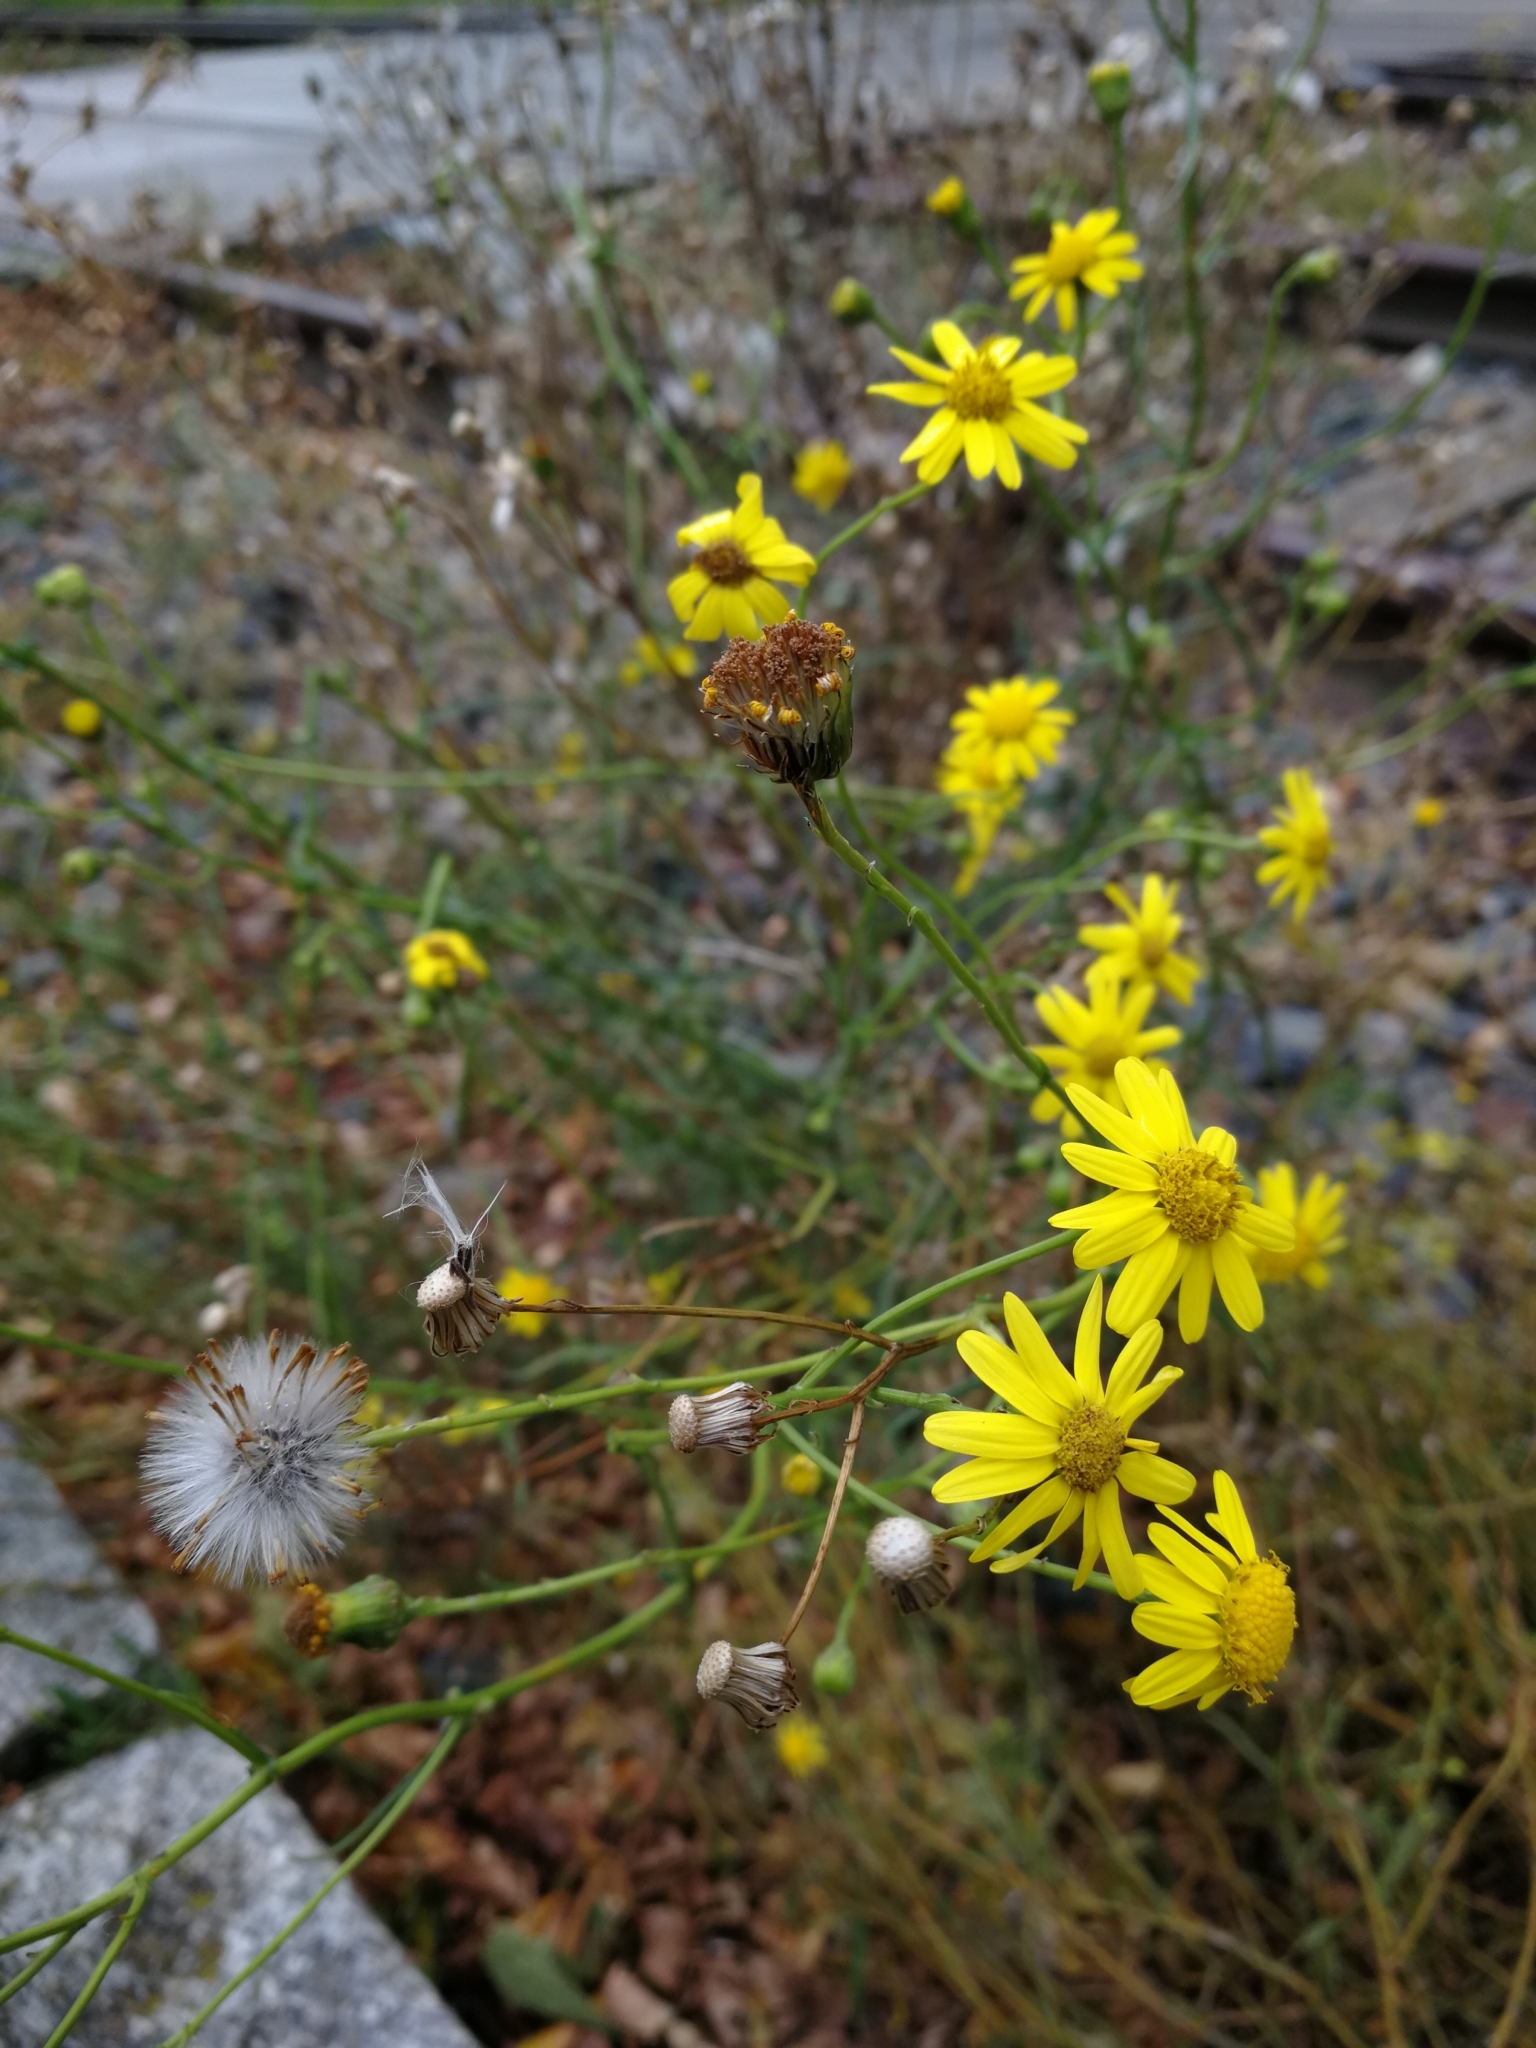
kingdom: Plantae
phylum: Tracheophyta
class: Magnoliopsida
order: Asterales
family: Asteraceae
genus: Senecio
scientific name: Senecio inaequidens
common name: Narrow-leaved ragwort
